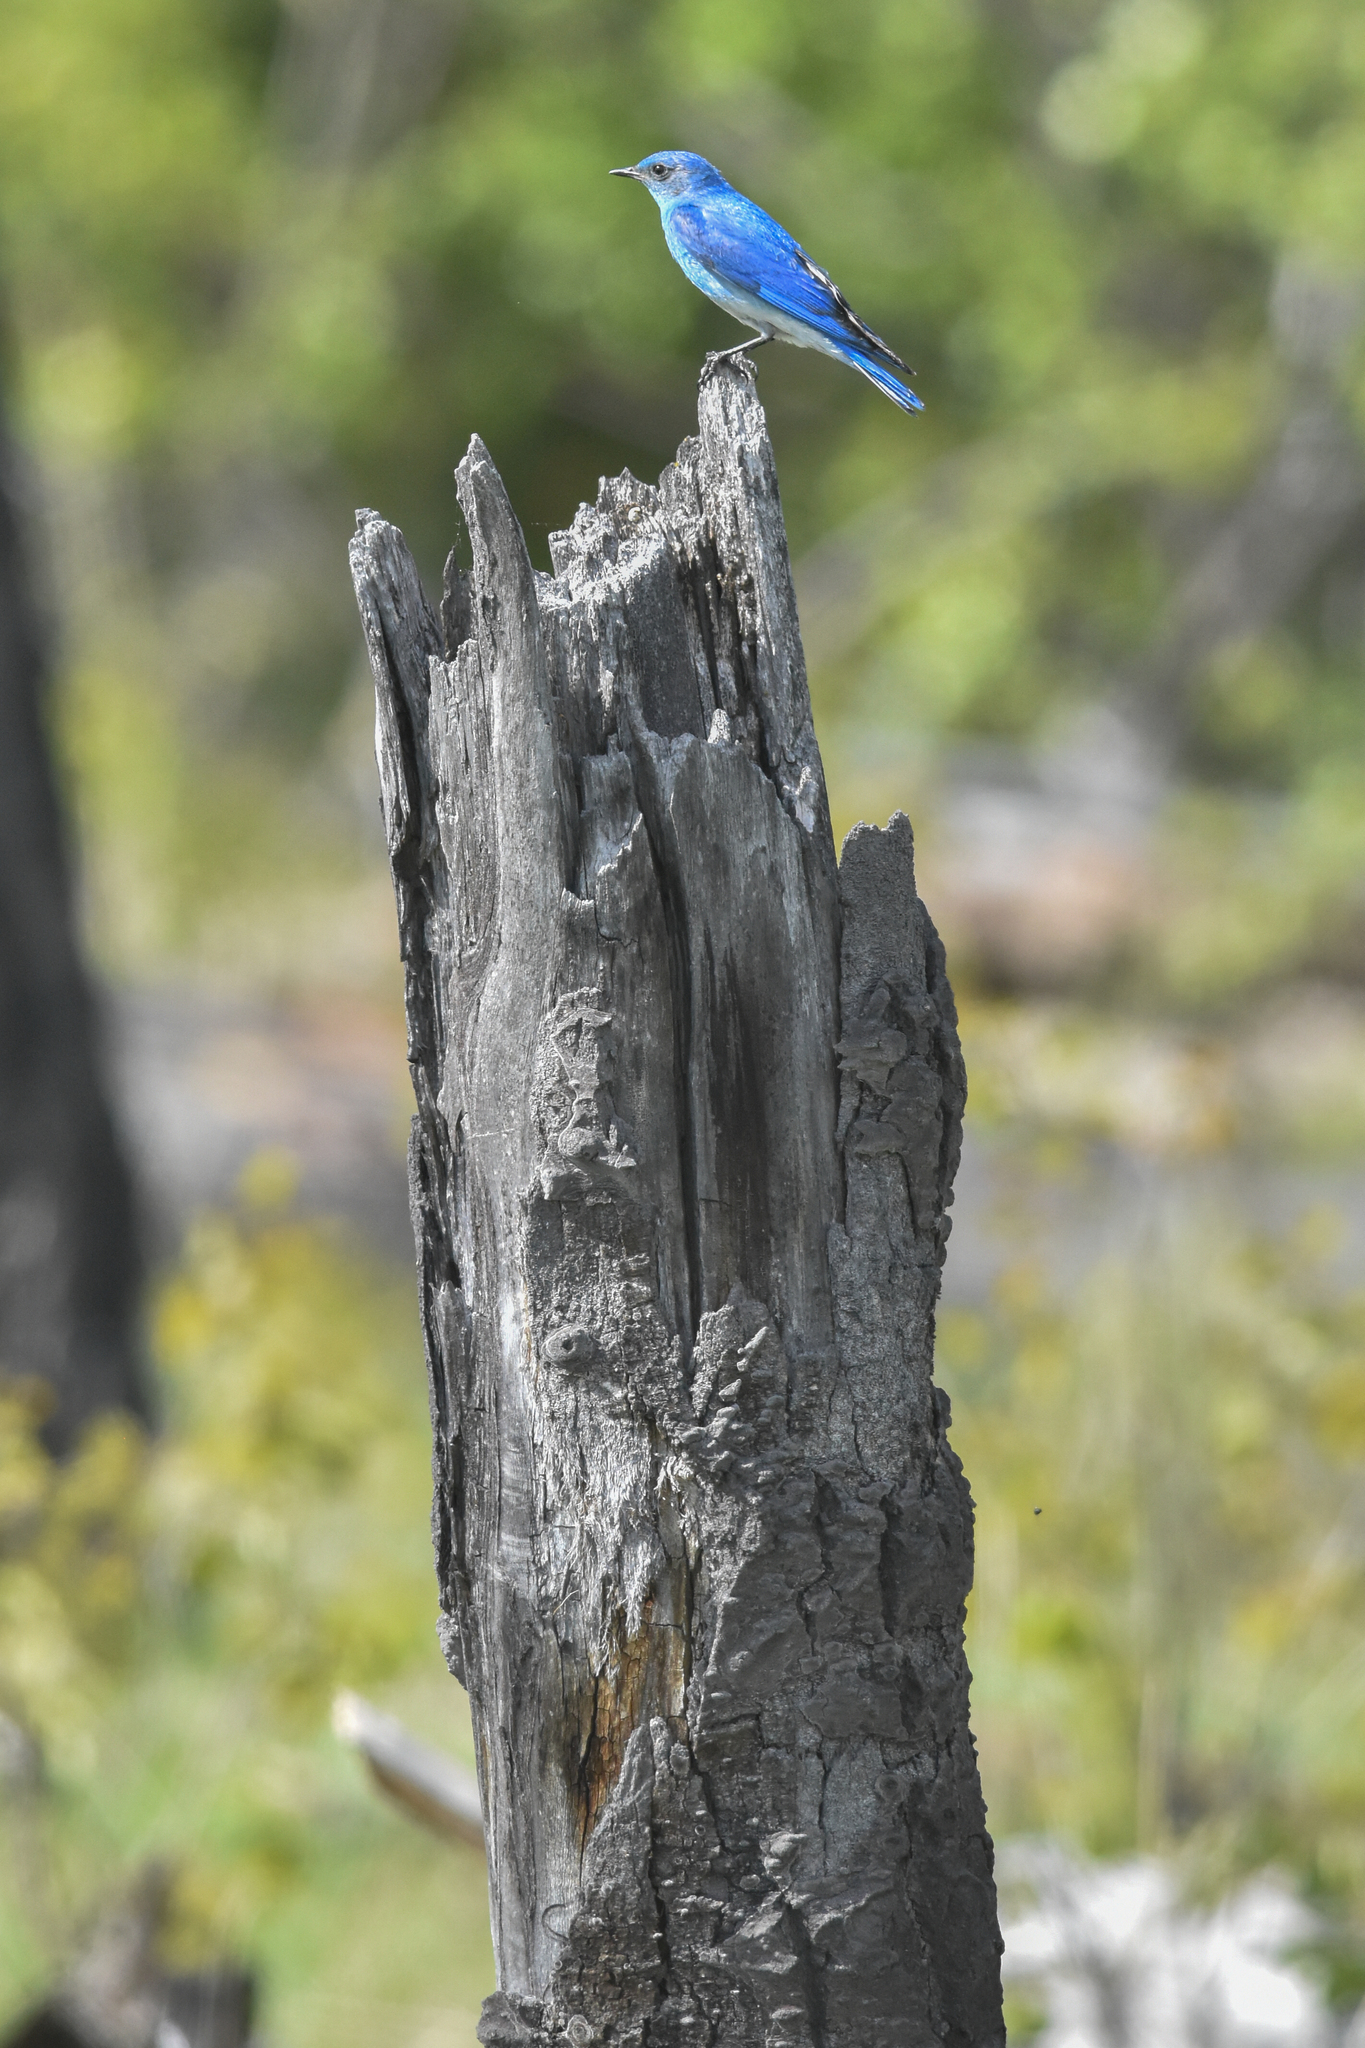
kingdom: Animalia
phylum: Chordata
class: Aves
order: Passeriformes
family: Turdidae
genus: Sialia
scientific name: Sialia currucoides
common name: Mountain bluebird
